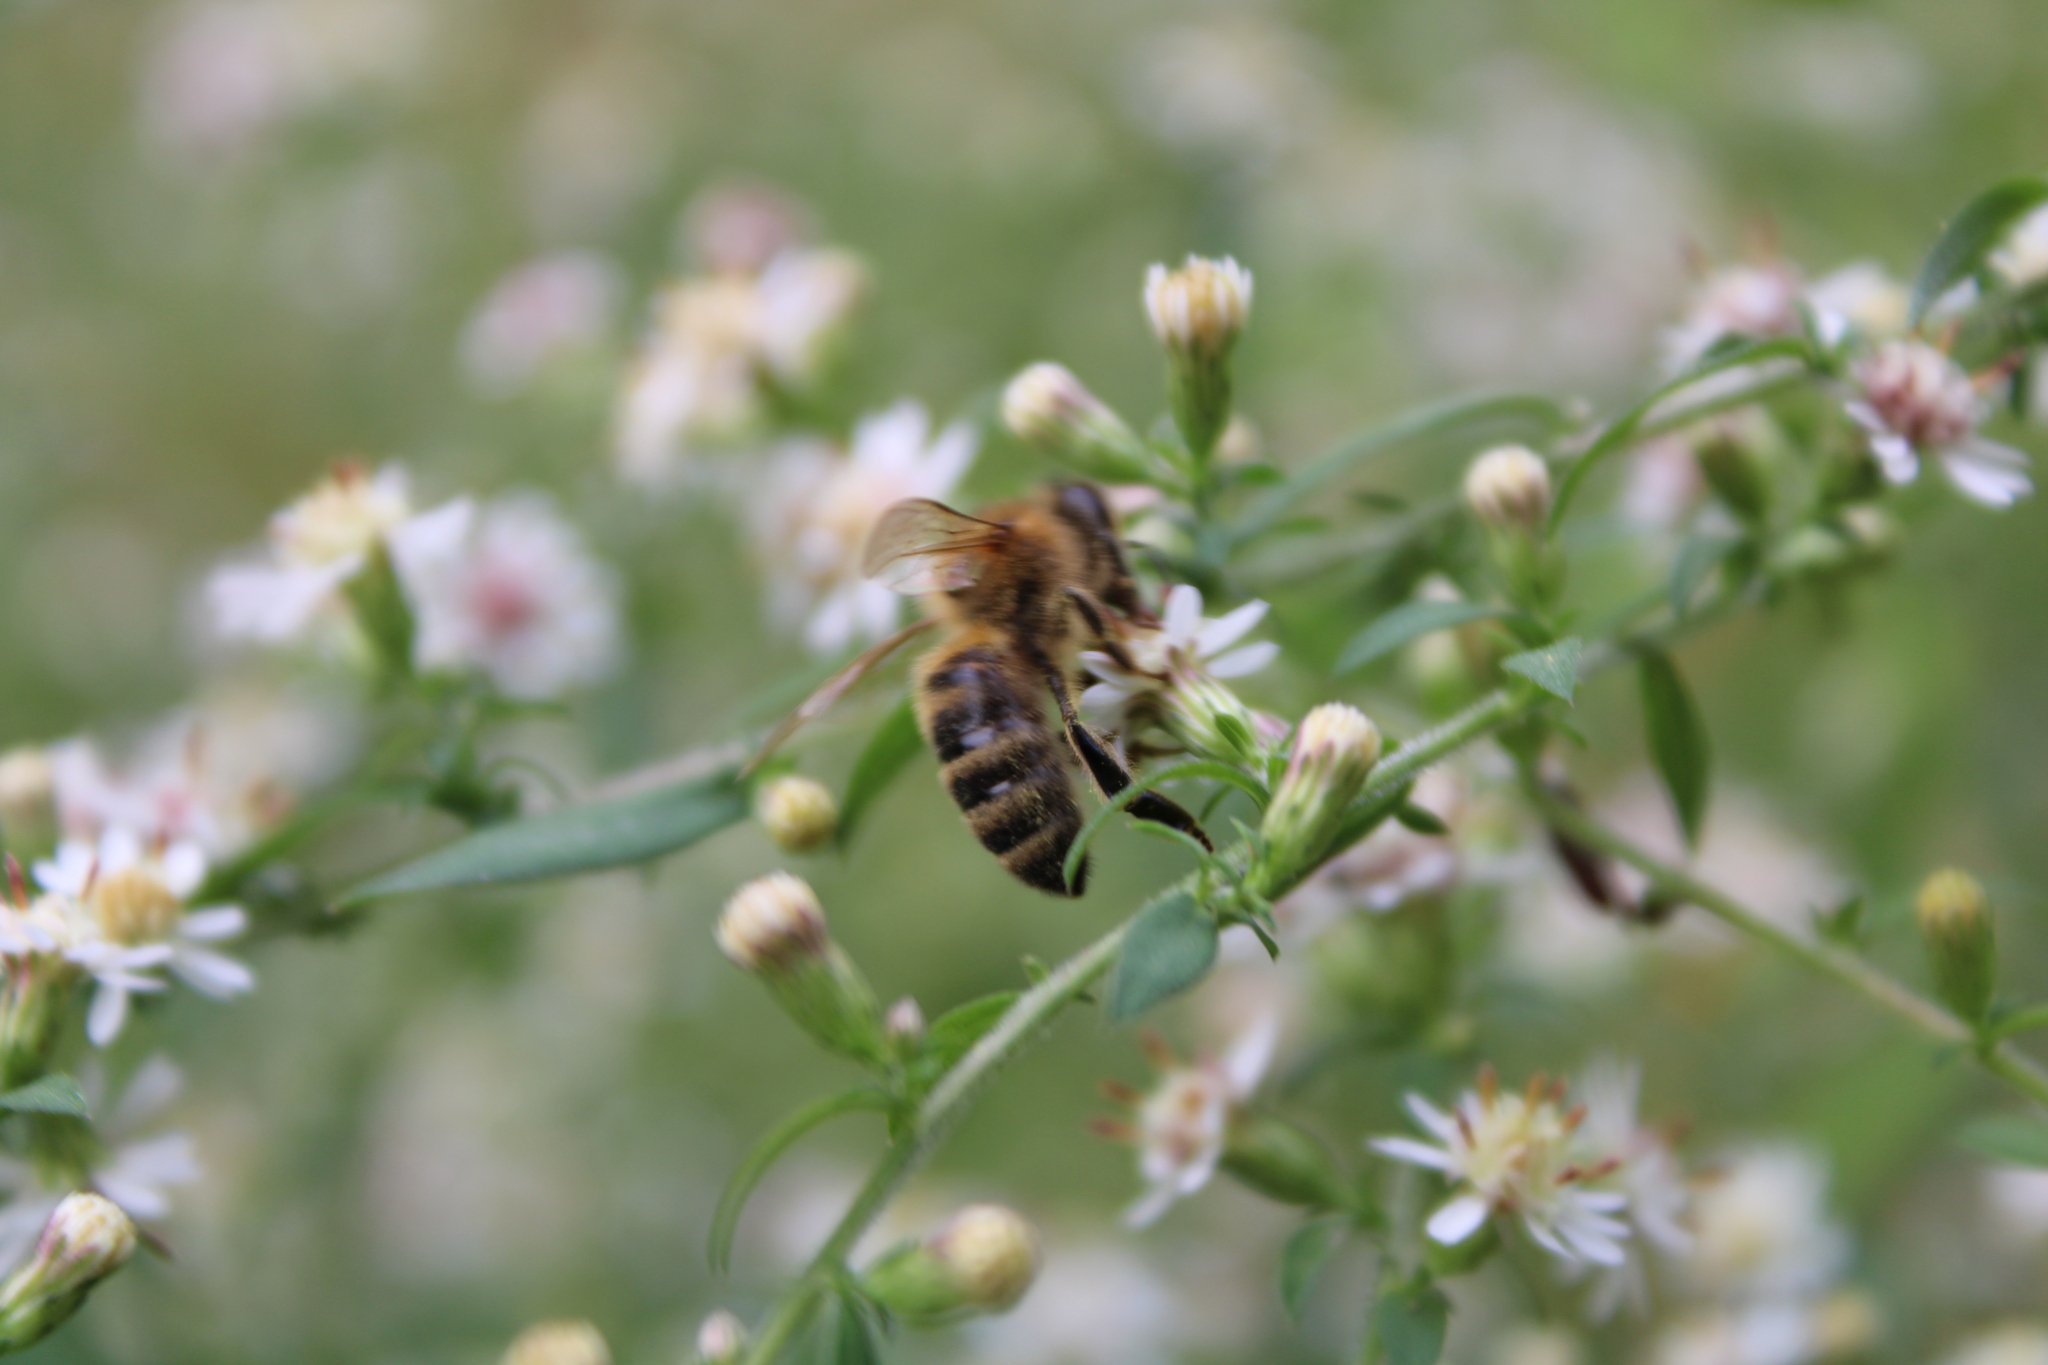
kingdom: Animalia
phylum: Arthropoda
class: Insecta
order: Hymenoptera
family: Apidae
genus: Apis
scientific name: Apis mellifera
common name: Honey bee
